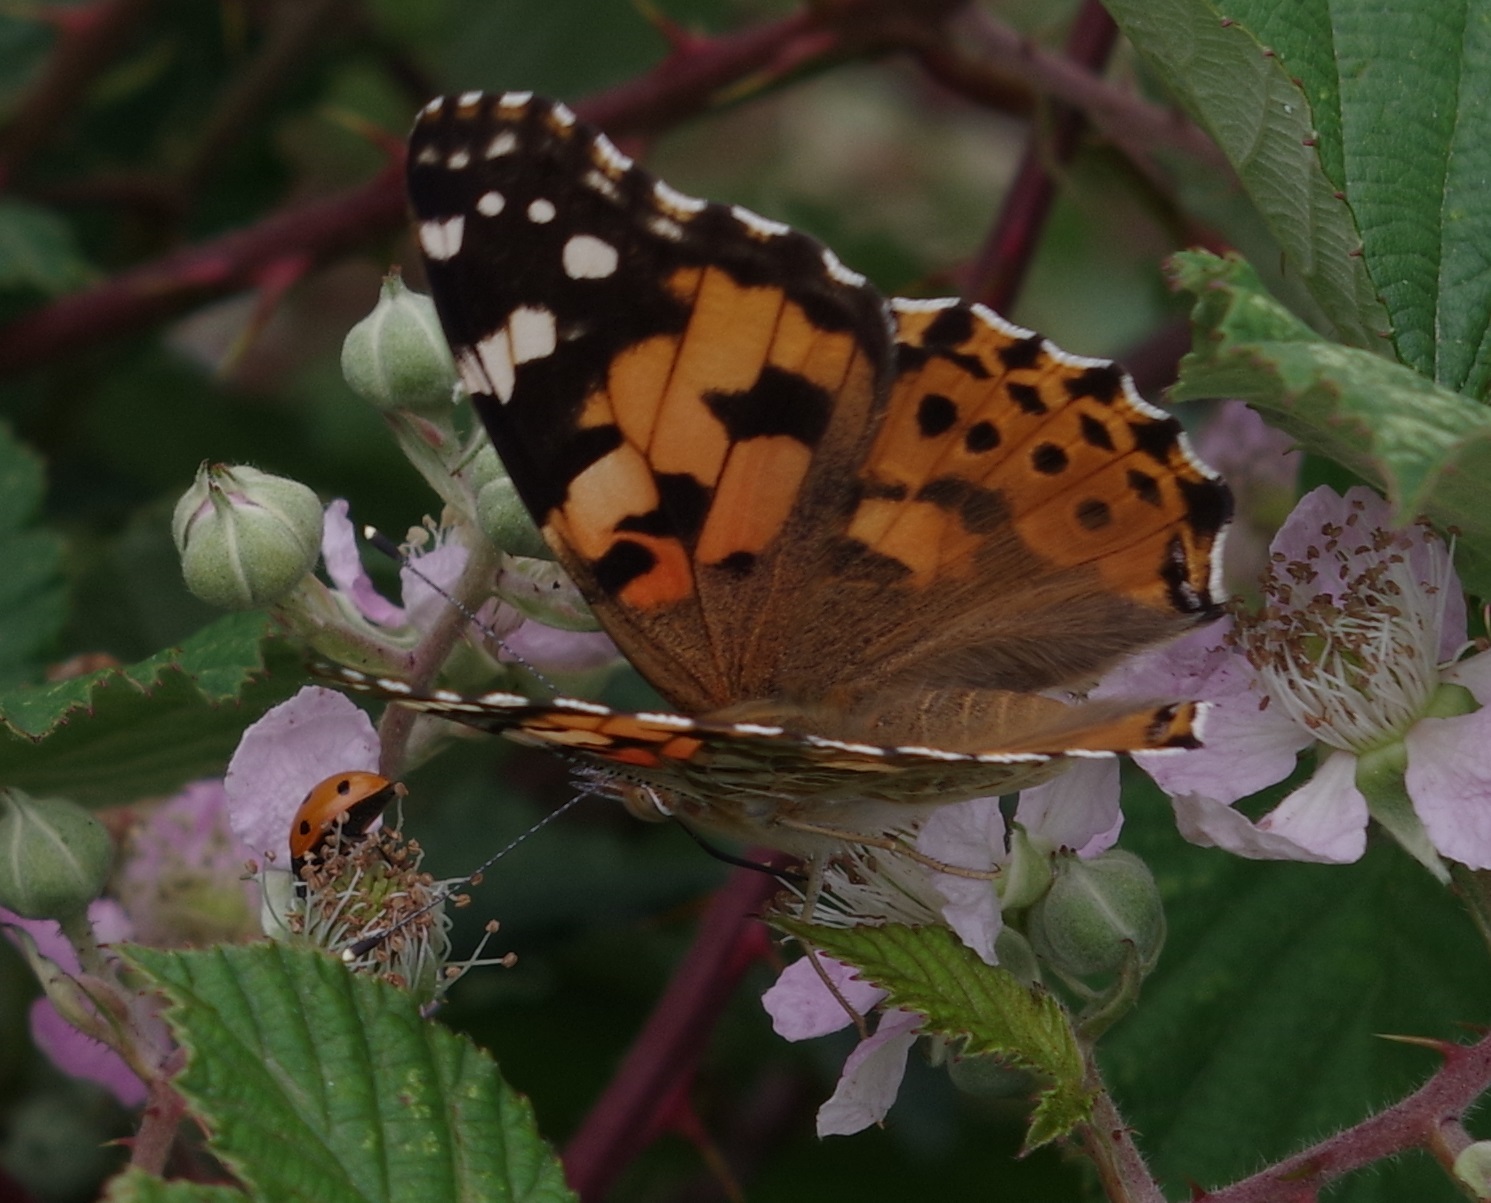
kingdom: Animalia
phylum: Arthropoda
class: Insecta
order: Lepidoptera
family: Nymphalidae
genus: Vanessa
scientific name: Vanessa cardui
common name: Painted lady
